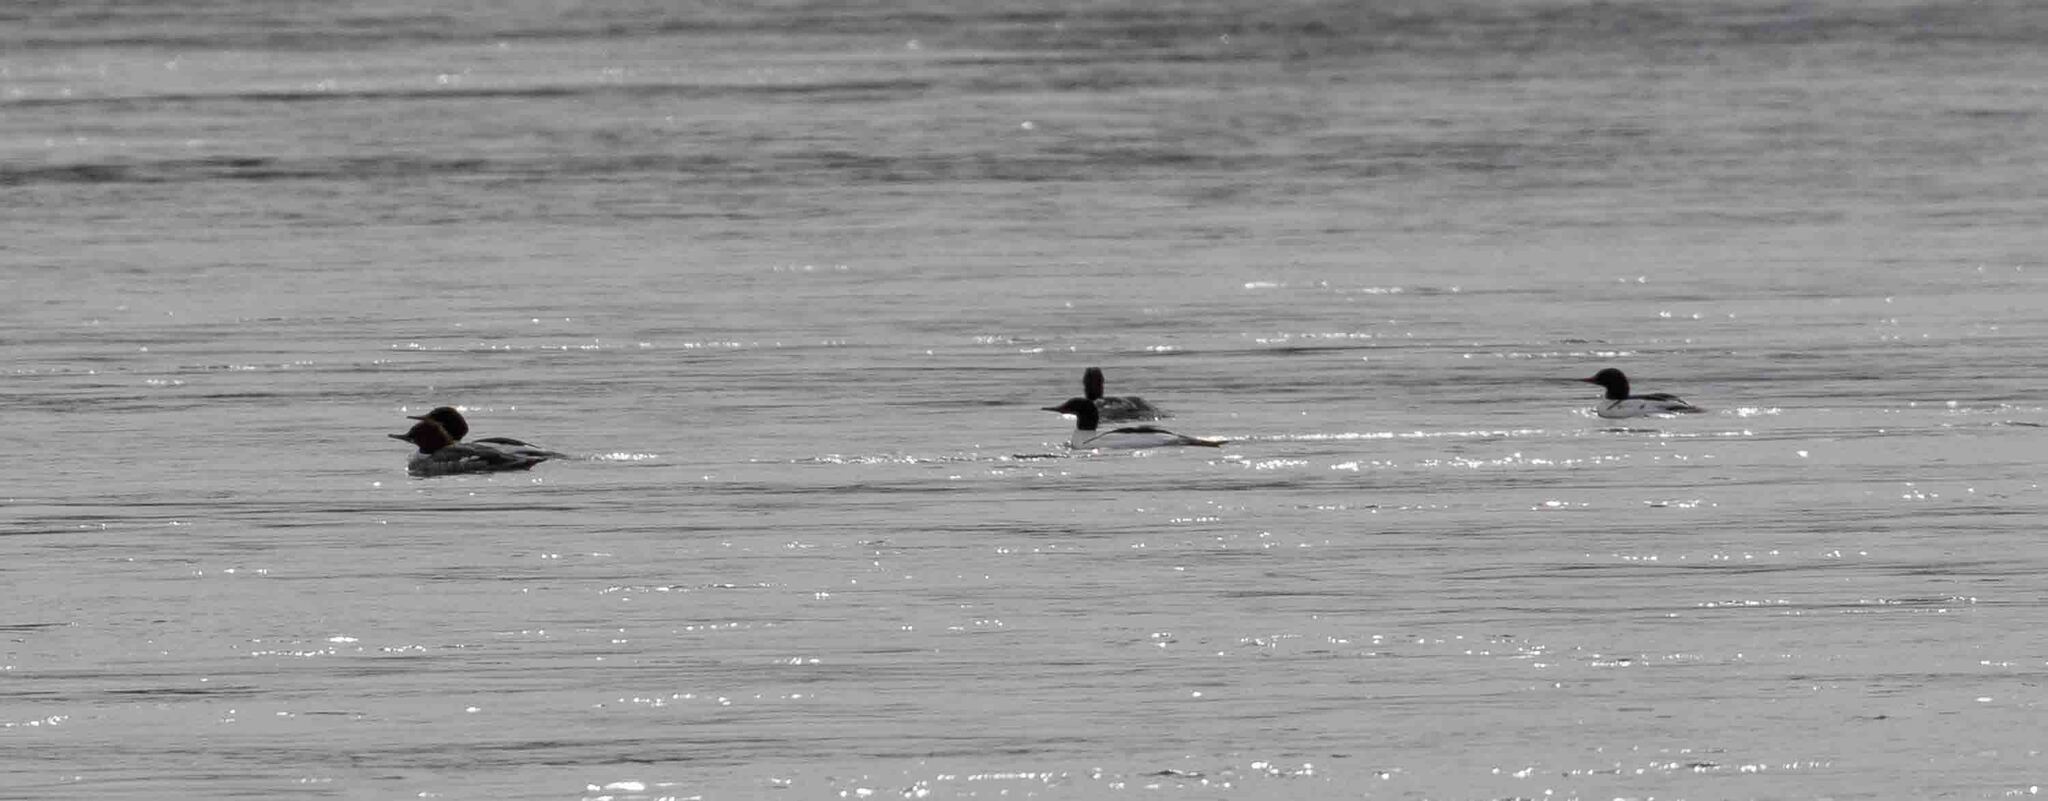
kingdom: Animalia
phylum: Chordata
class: Aves
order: Anseriformes
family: Anatidae
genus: Mergus
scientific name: Mergus merganser
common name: Common merganser
